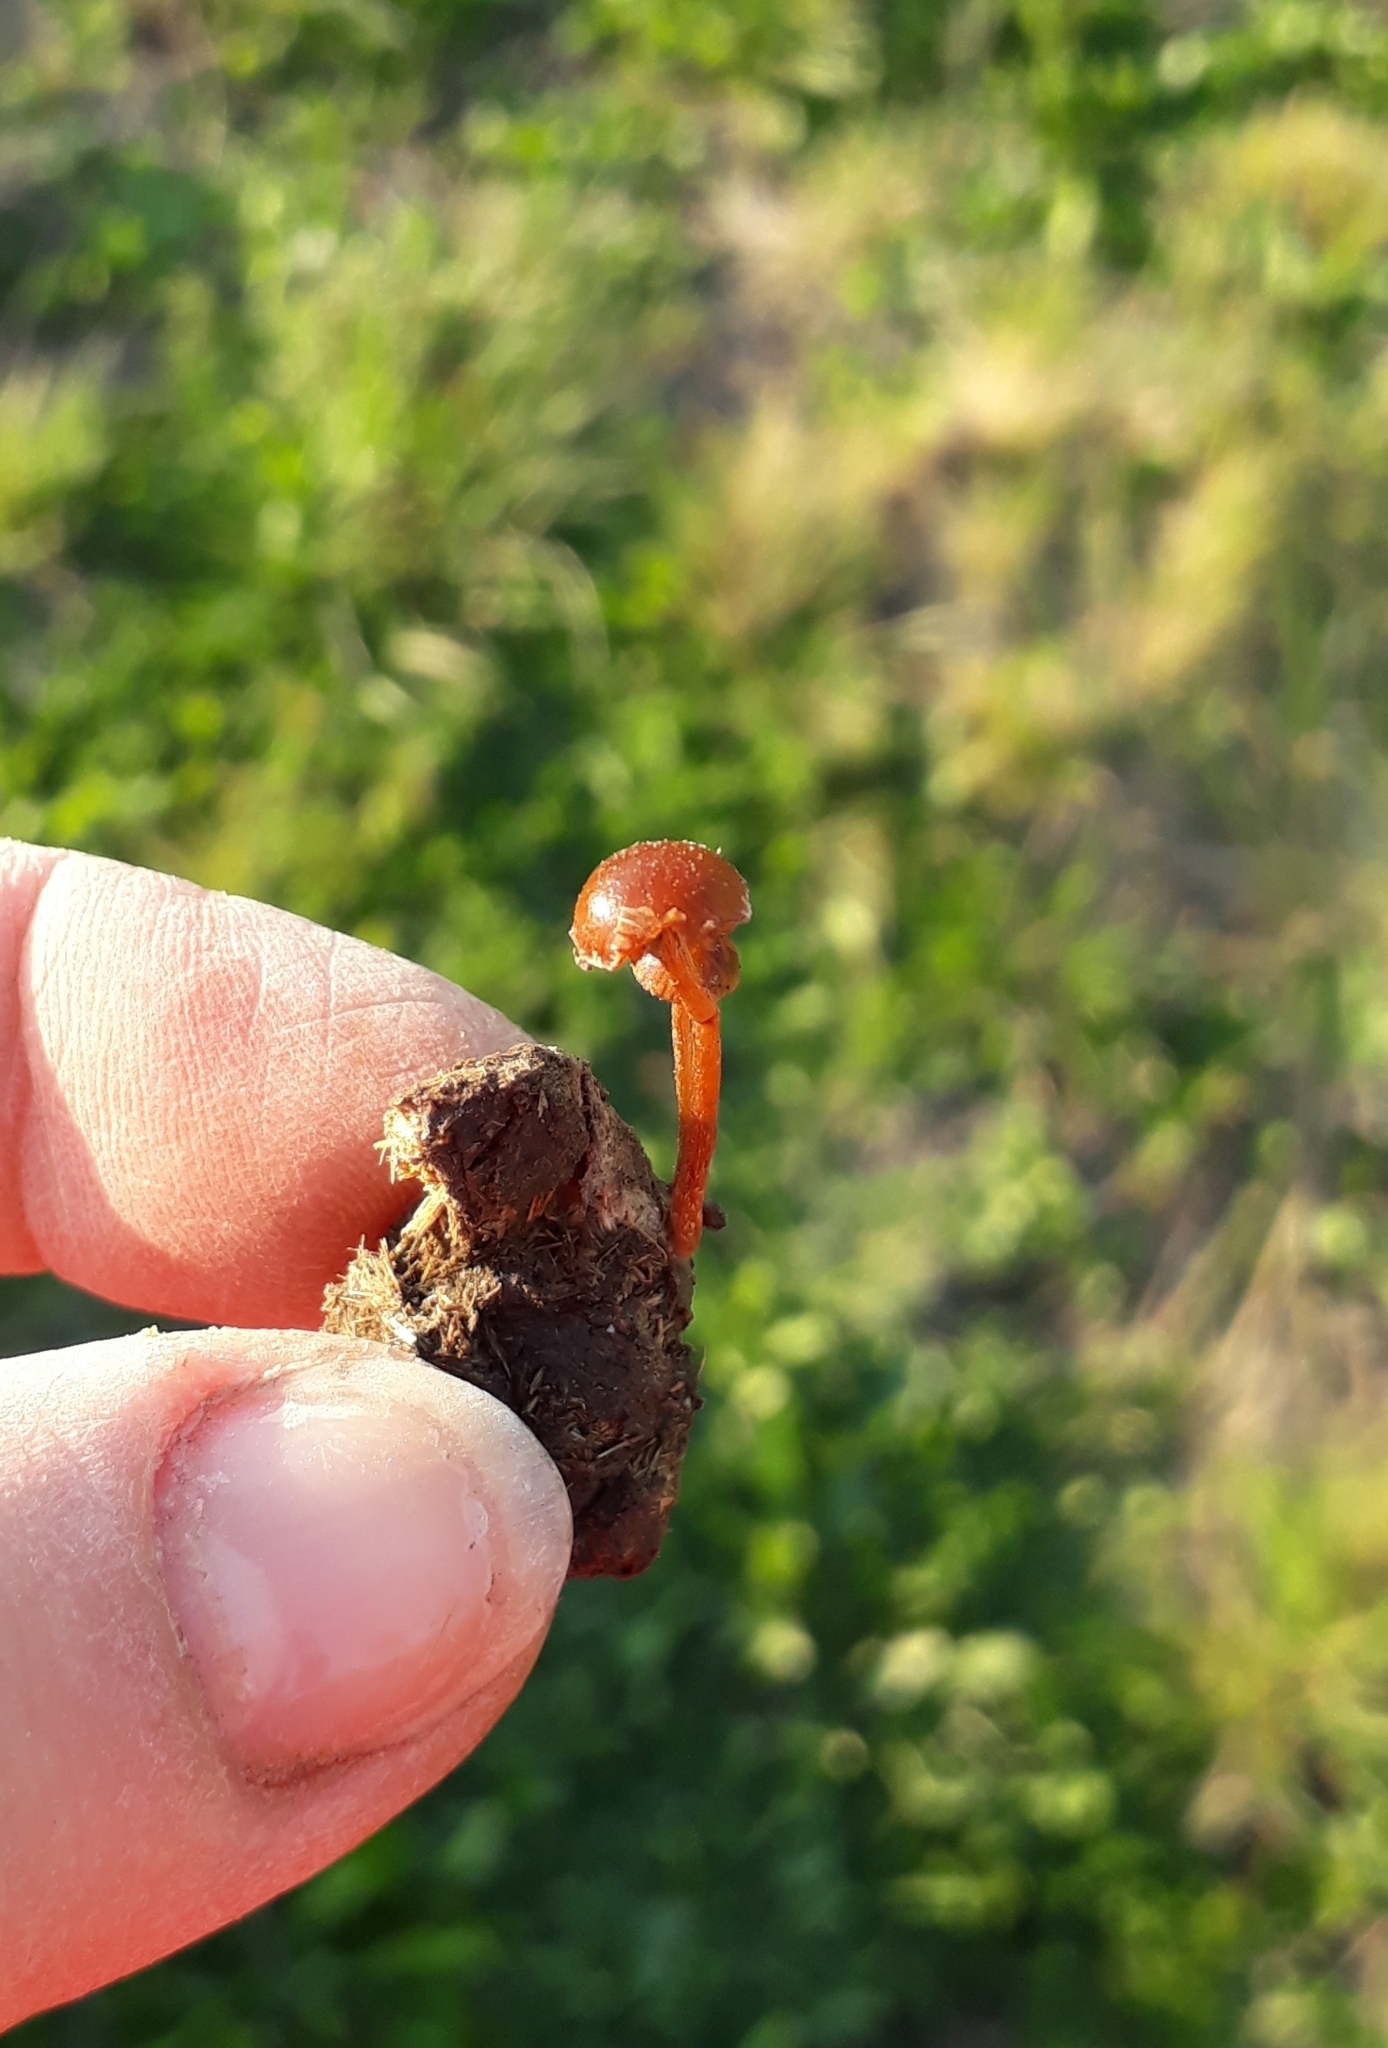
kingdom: Fungi
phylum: Basidiomycota
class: Agaricomycetes
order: Agaricales
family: Strophariaceae
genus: Deconica
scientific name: Deconica coprophila
